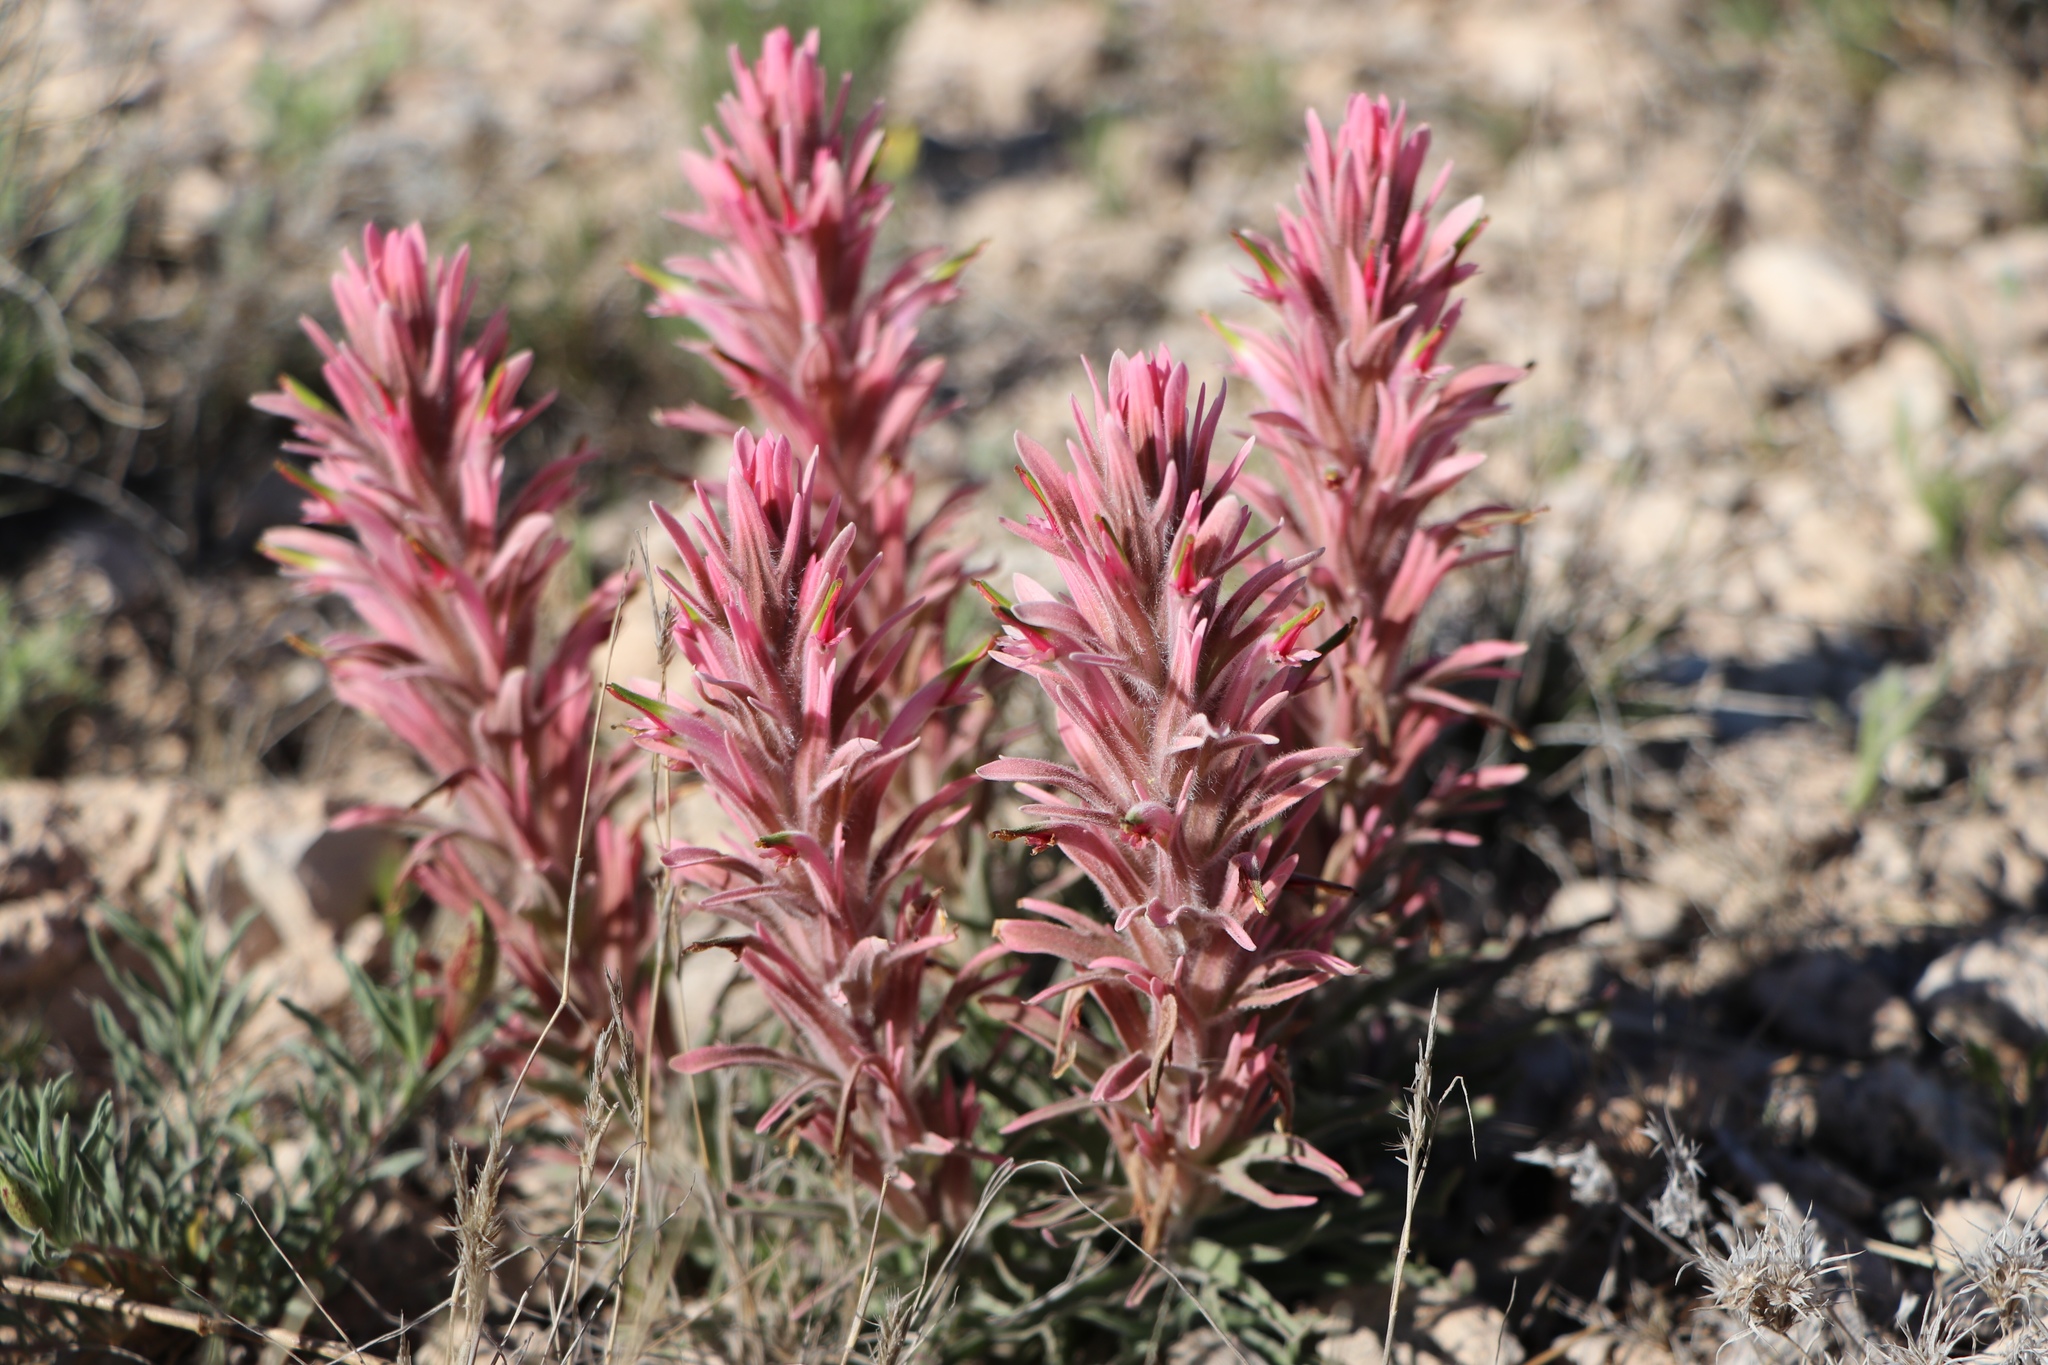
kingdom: Plantae
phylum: Tracheophyta
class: Magnoliopsida
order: Lamiales
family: Orobanchaceae
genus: Castilleja
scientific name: Castilleja sessiliflora
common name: Downy paintbrush
